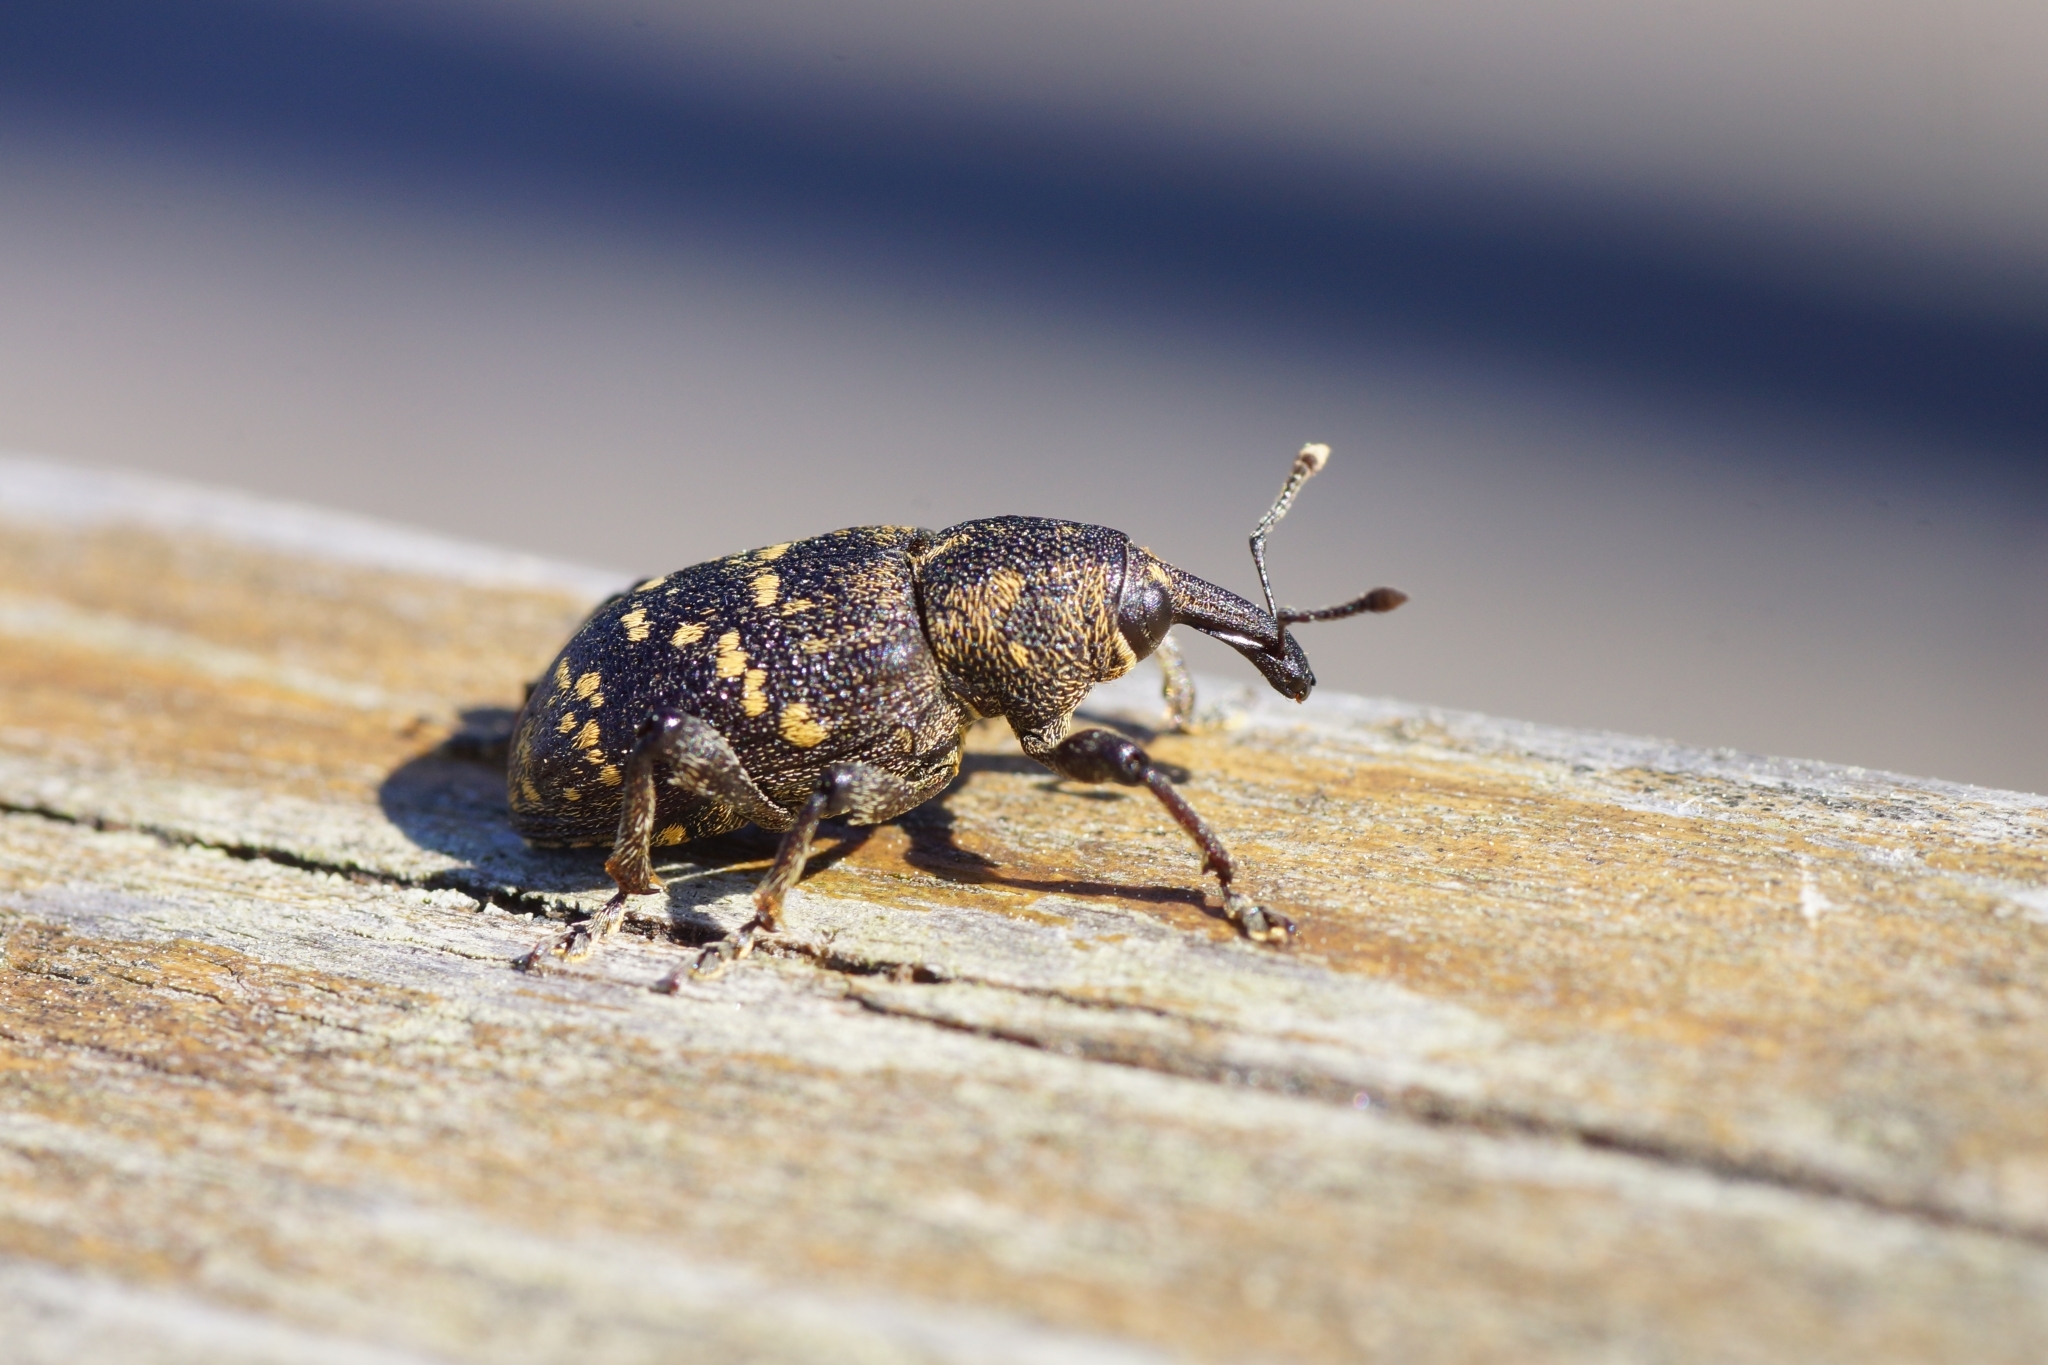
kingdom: Animalia
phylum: Arthropoda
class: Insecta
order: Coleoptera
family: Curculionidae
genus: Hylobius
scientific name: Hylobius abietis
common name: Large pine weevil
